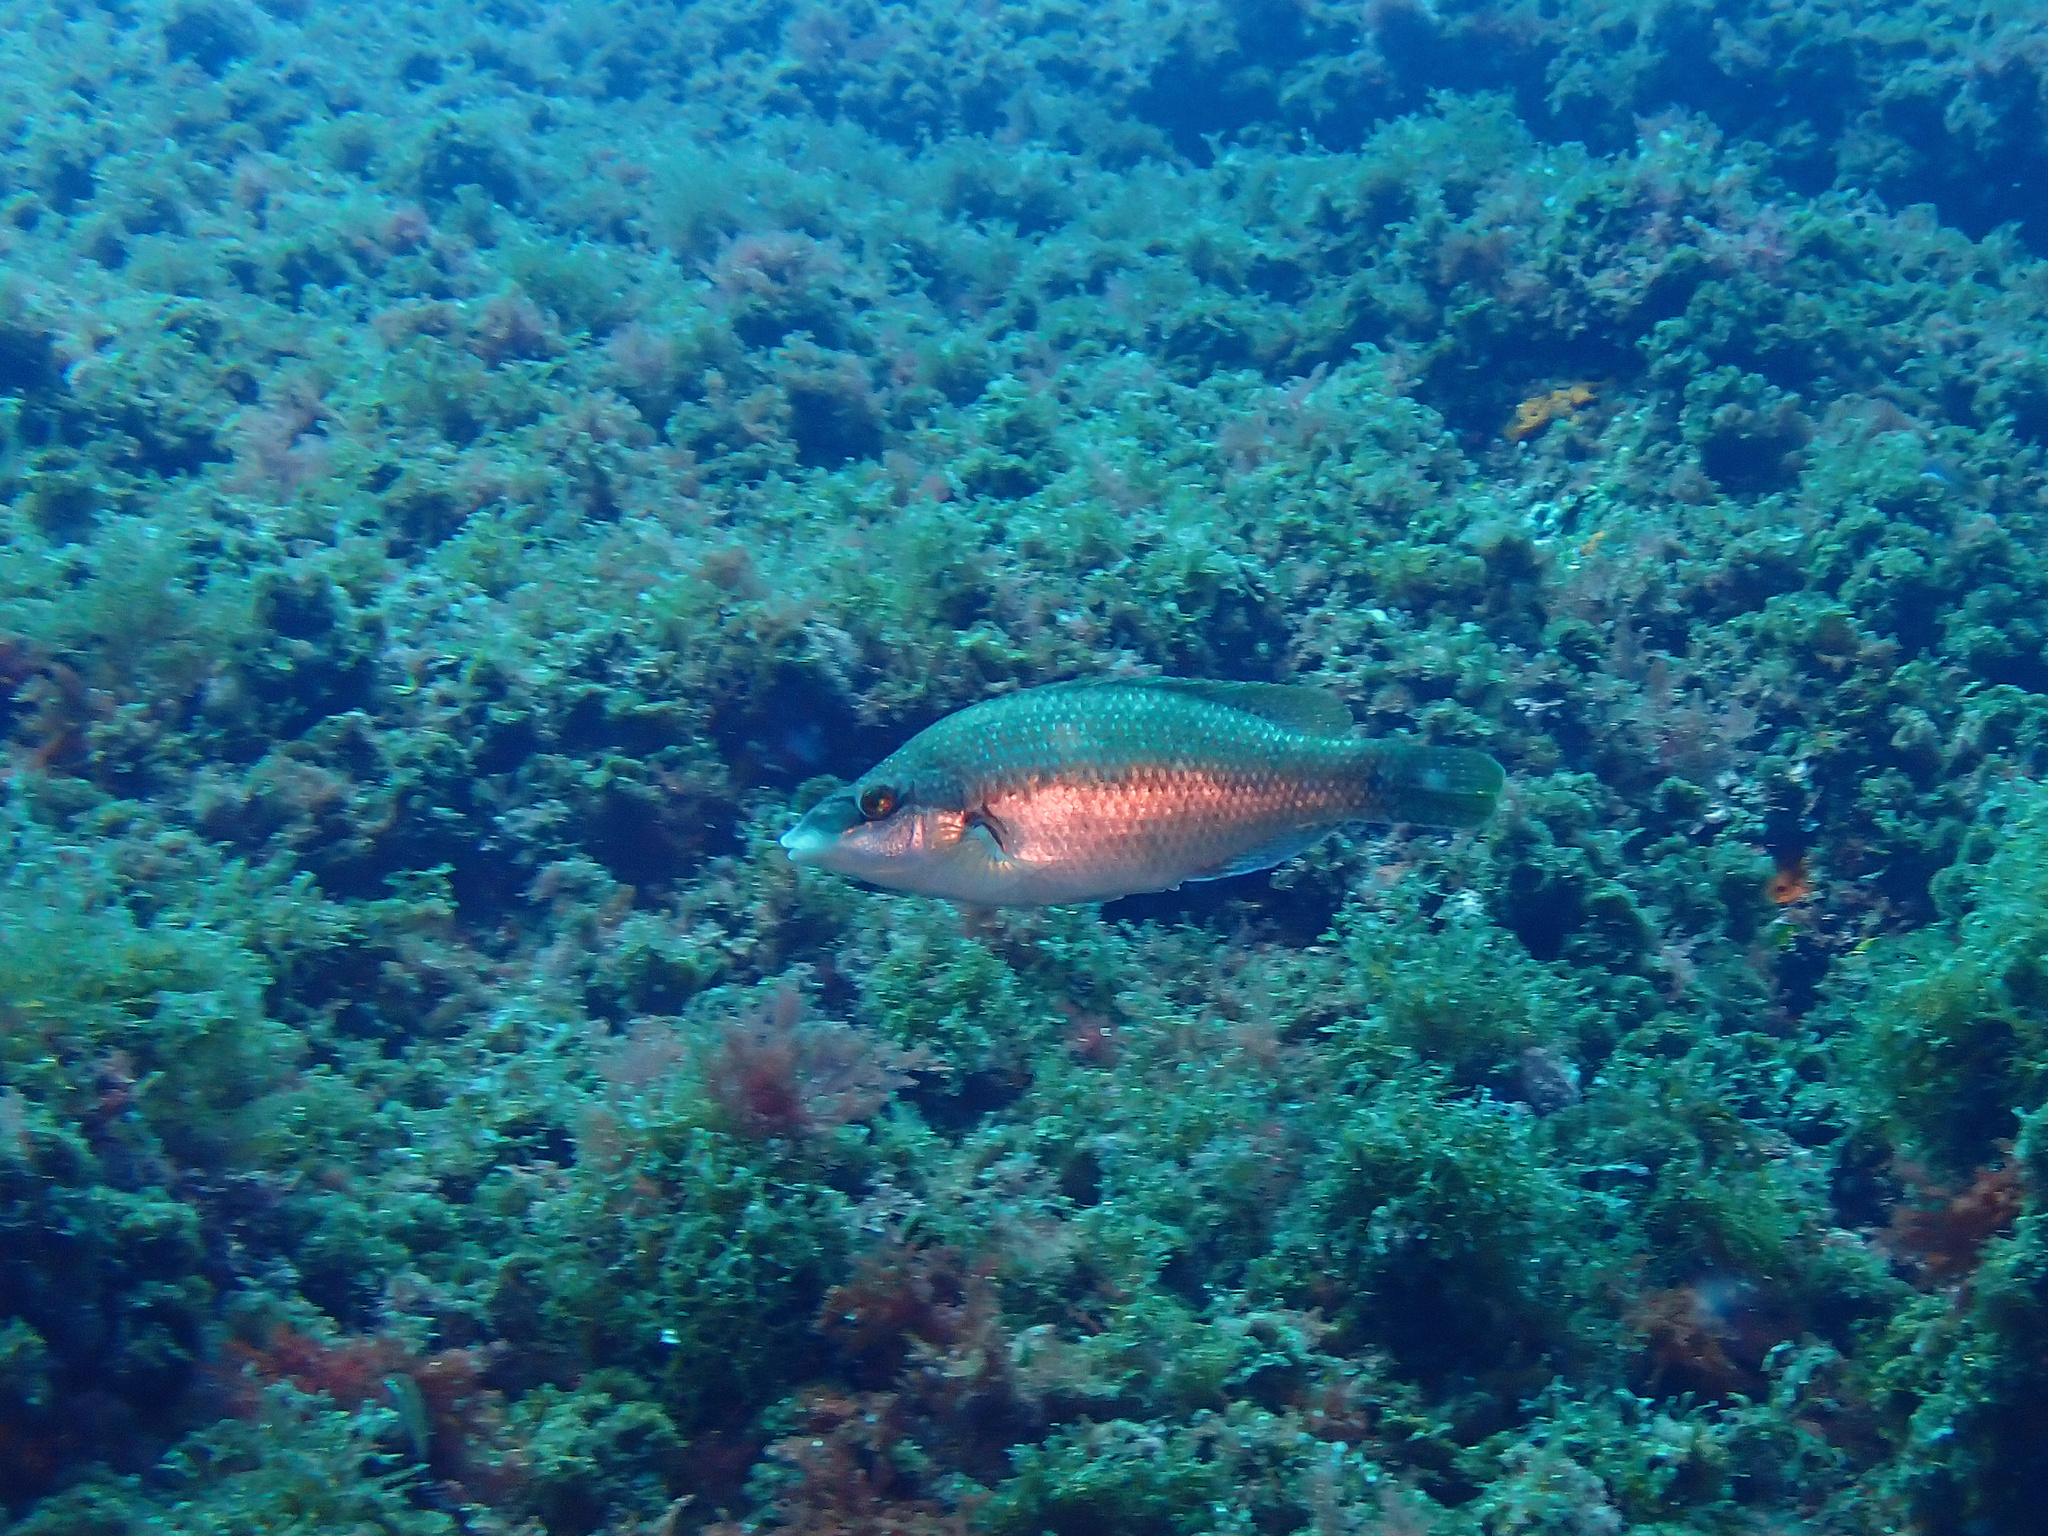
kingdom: Animalia
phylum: Chordata
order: Perciformes
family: Labridae
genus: Symphodus
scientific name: Symphodus tinca
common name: Peacock wrasse
